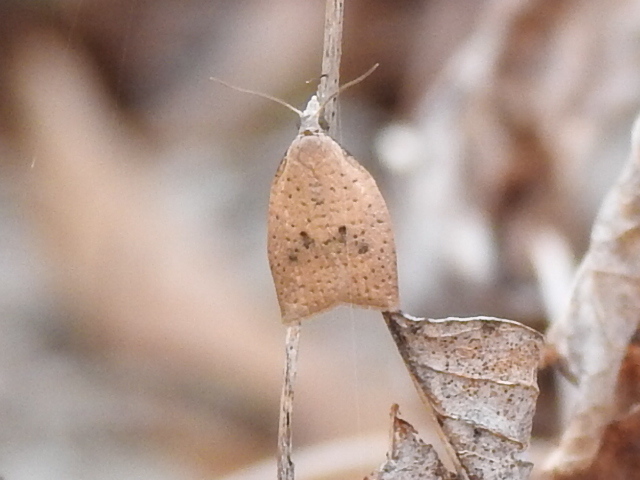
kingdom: Animalia
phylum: Arthropoda
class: Insecta
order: Lepidoptera
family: Tortricidae
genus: Sparganothoides
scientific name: Sparganothoides lentiginosana
